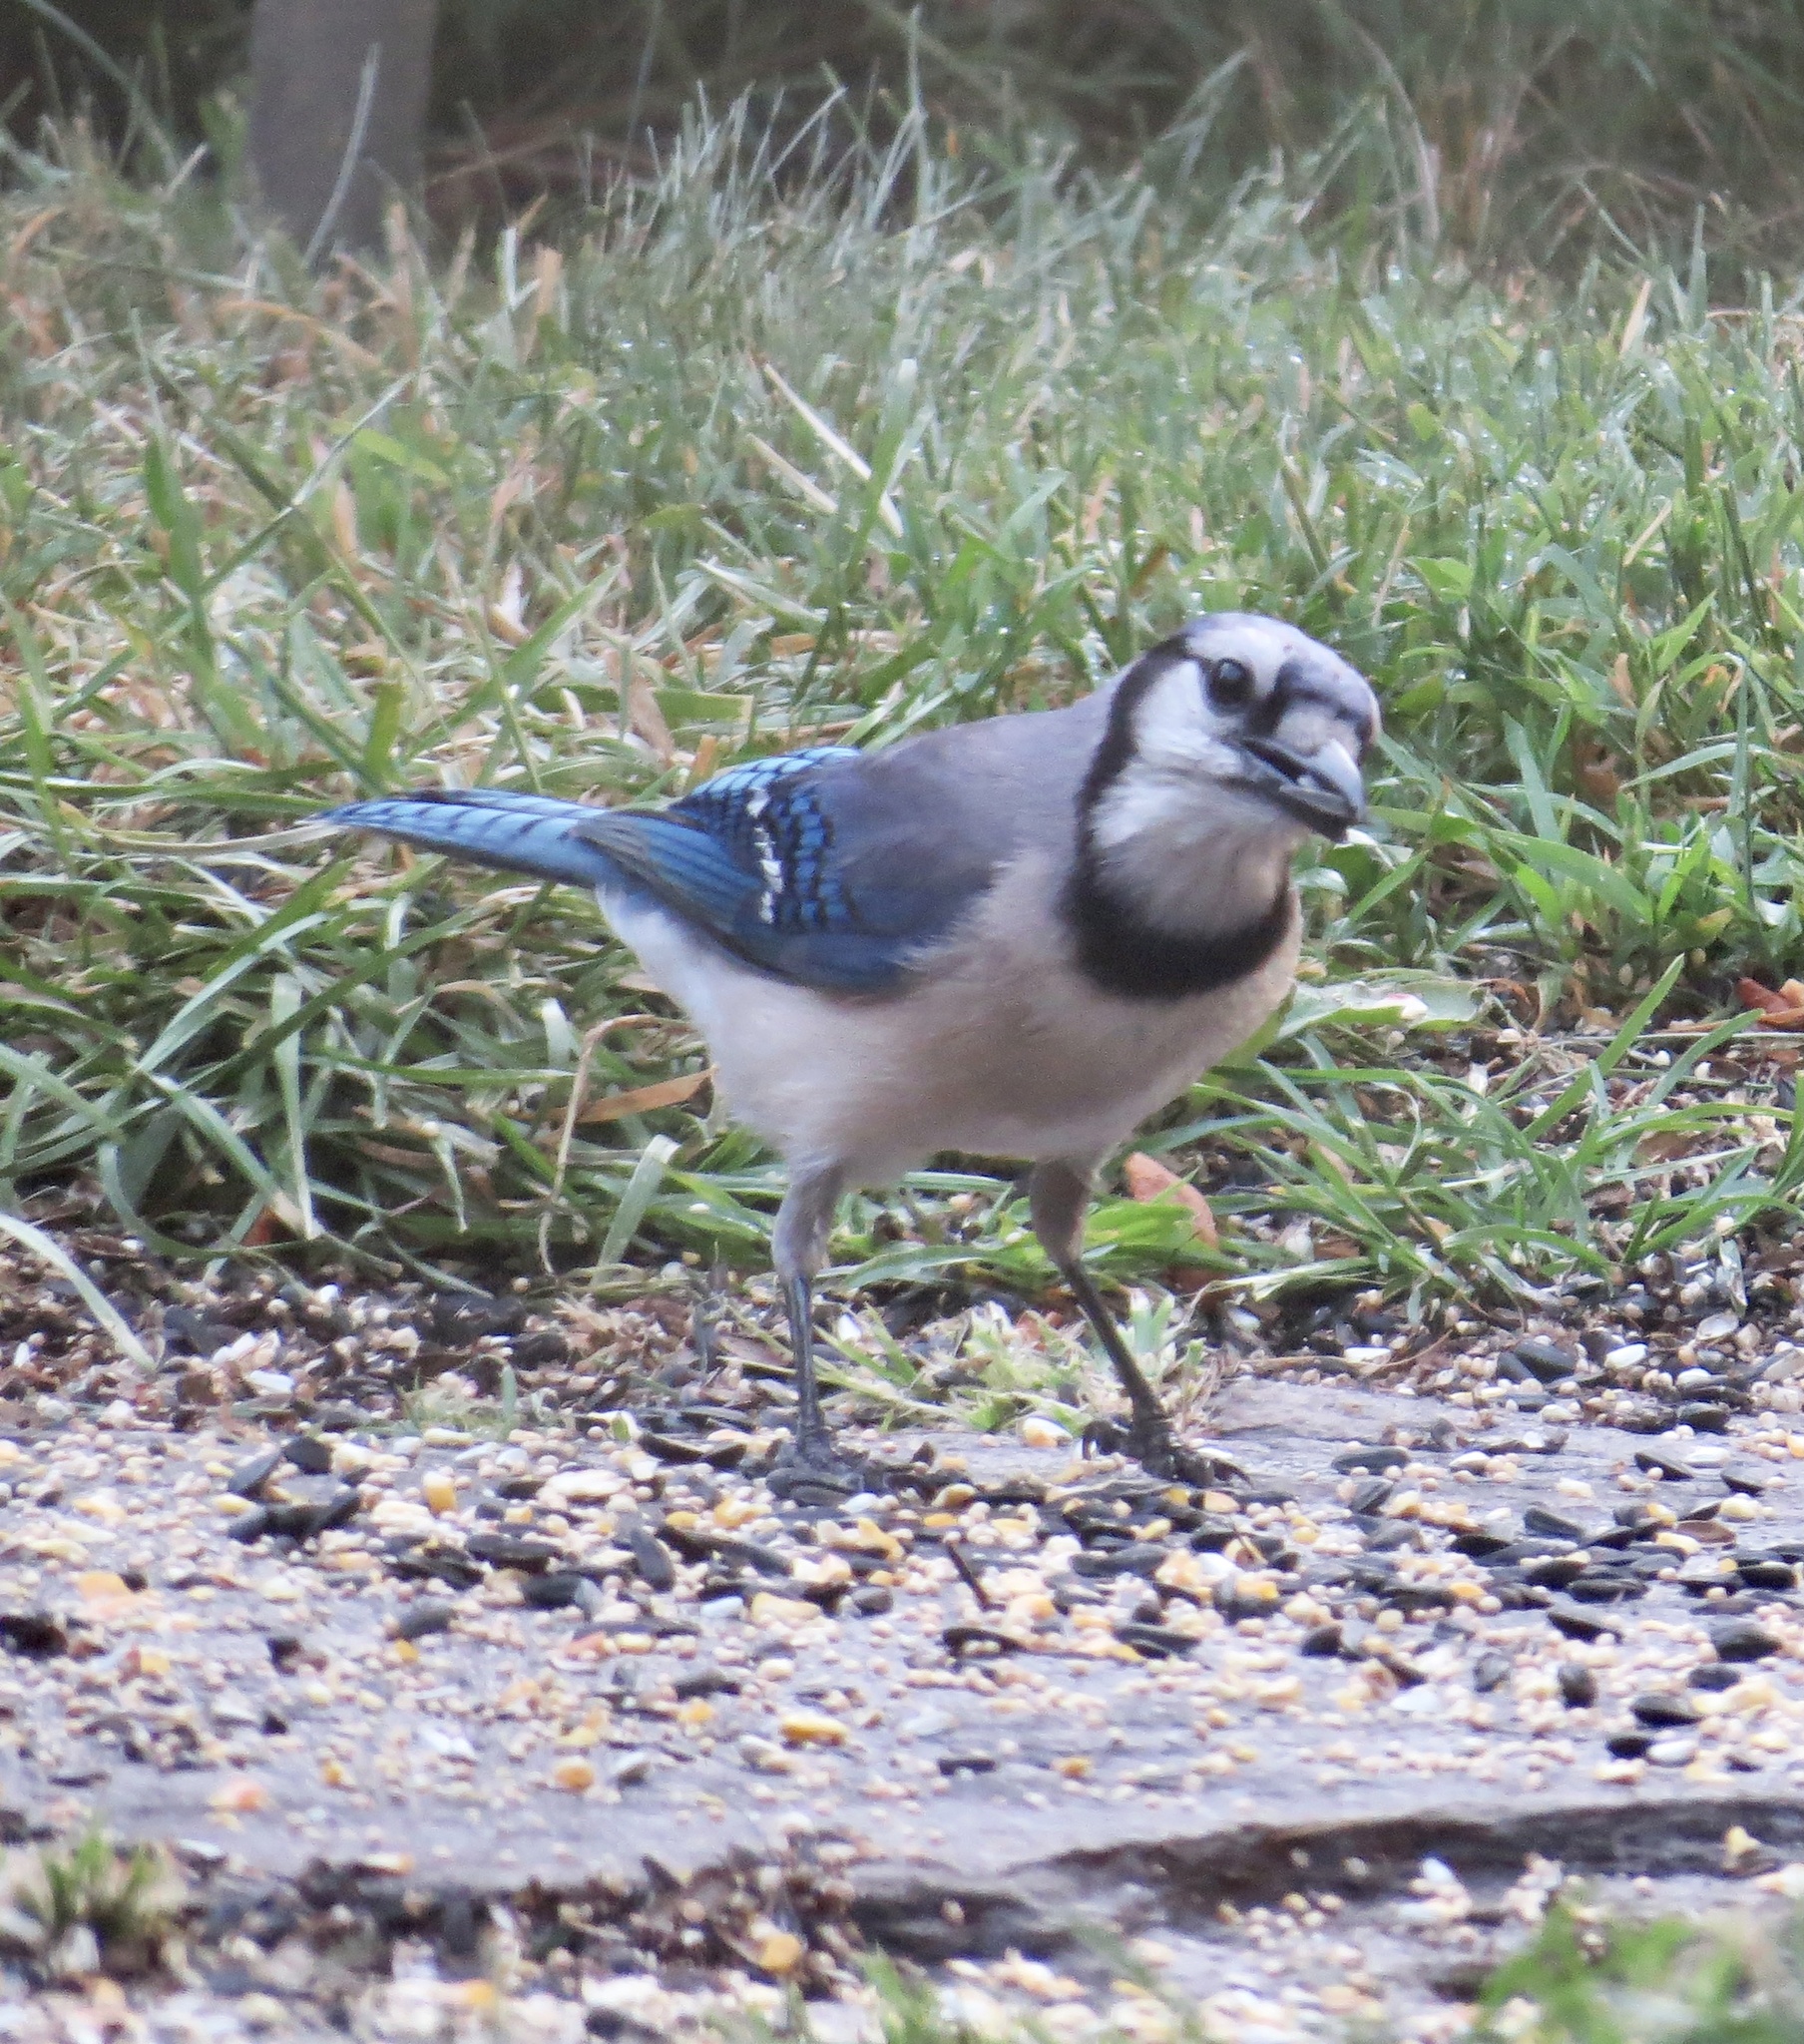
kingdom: Animalia
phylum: Chordata
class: Aves
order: Passeriformes
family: Corvidae
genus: Cyanocitta
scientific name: Cyanocitta cristata
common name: Blue jay
